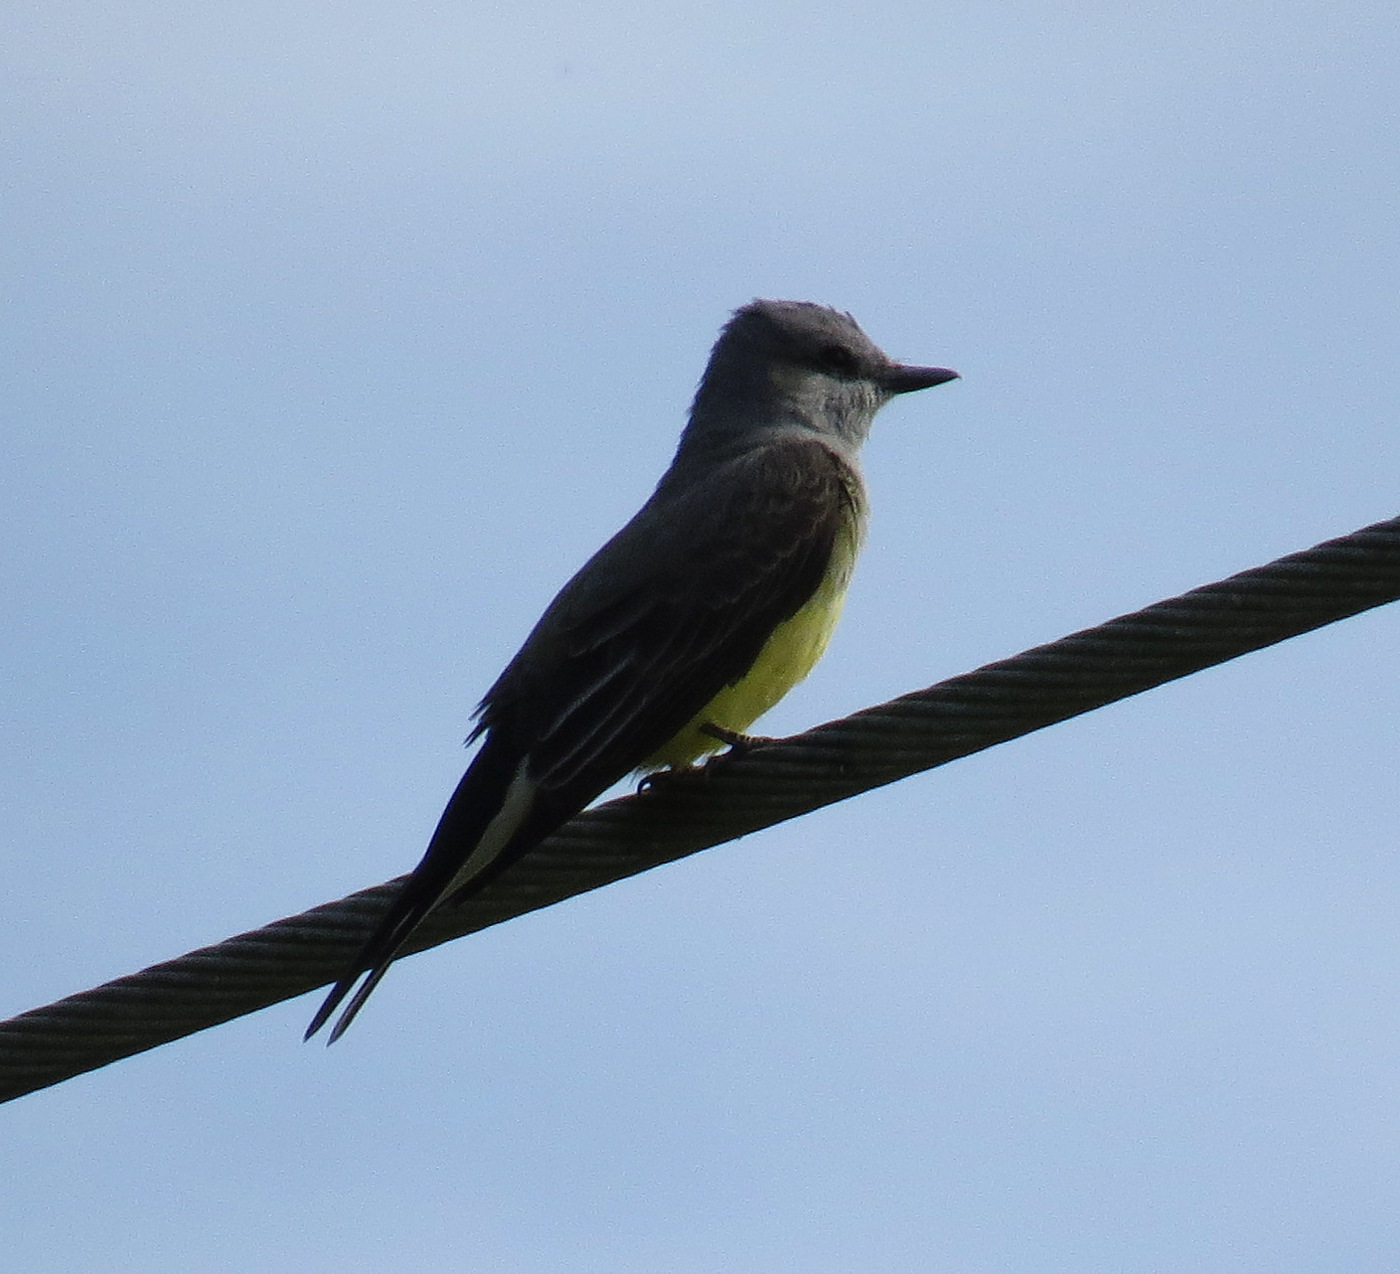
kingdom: Animalia
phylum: Chordata
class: Aves
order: Passeriformes
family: Tyrannidae
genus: Tyrannus
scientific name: Tyrannus verticalis
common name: Western kingbird
